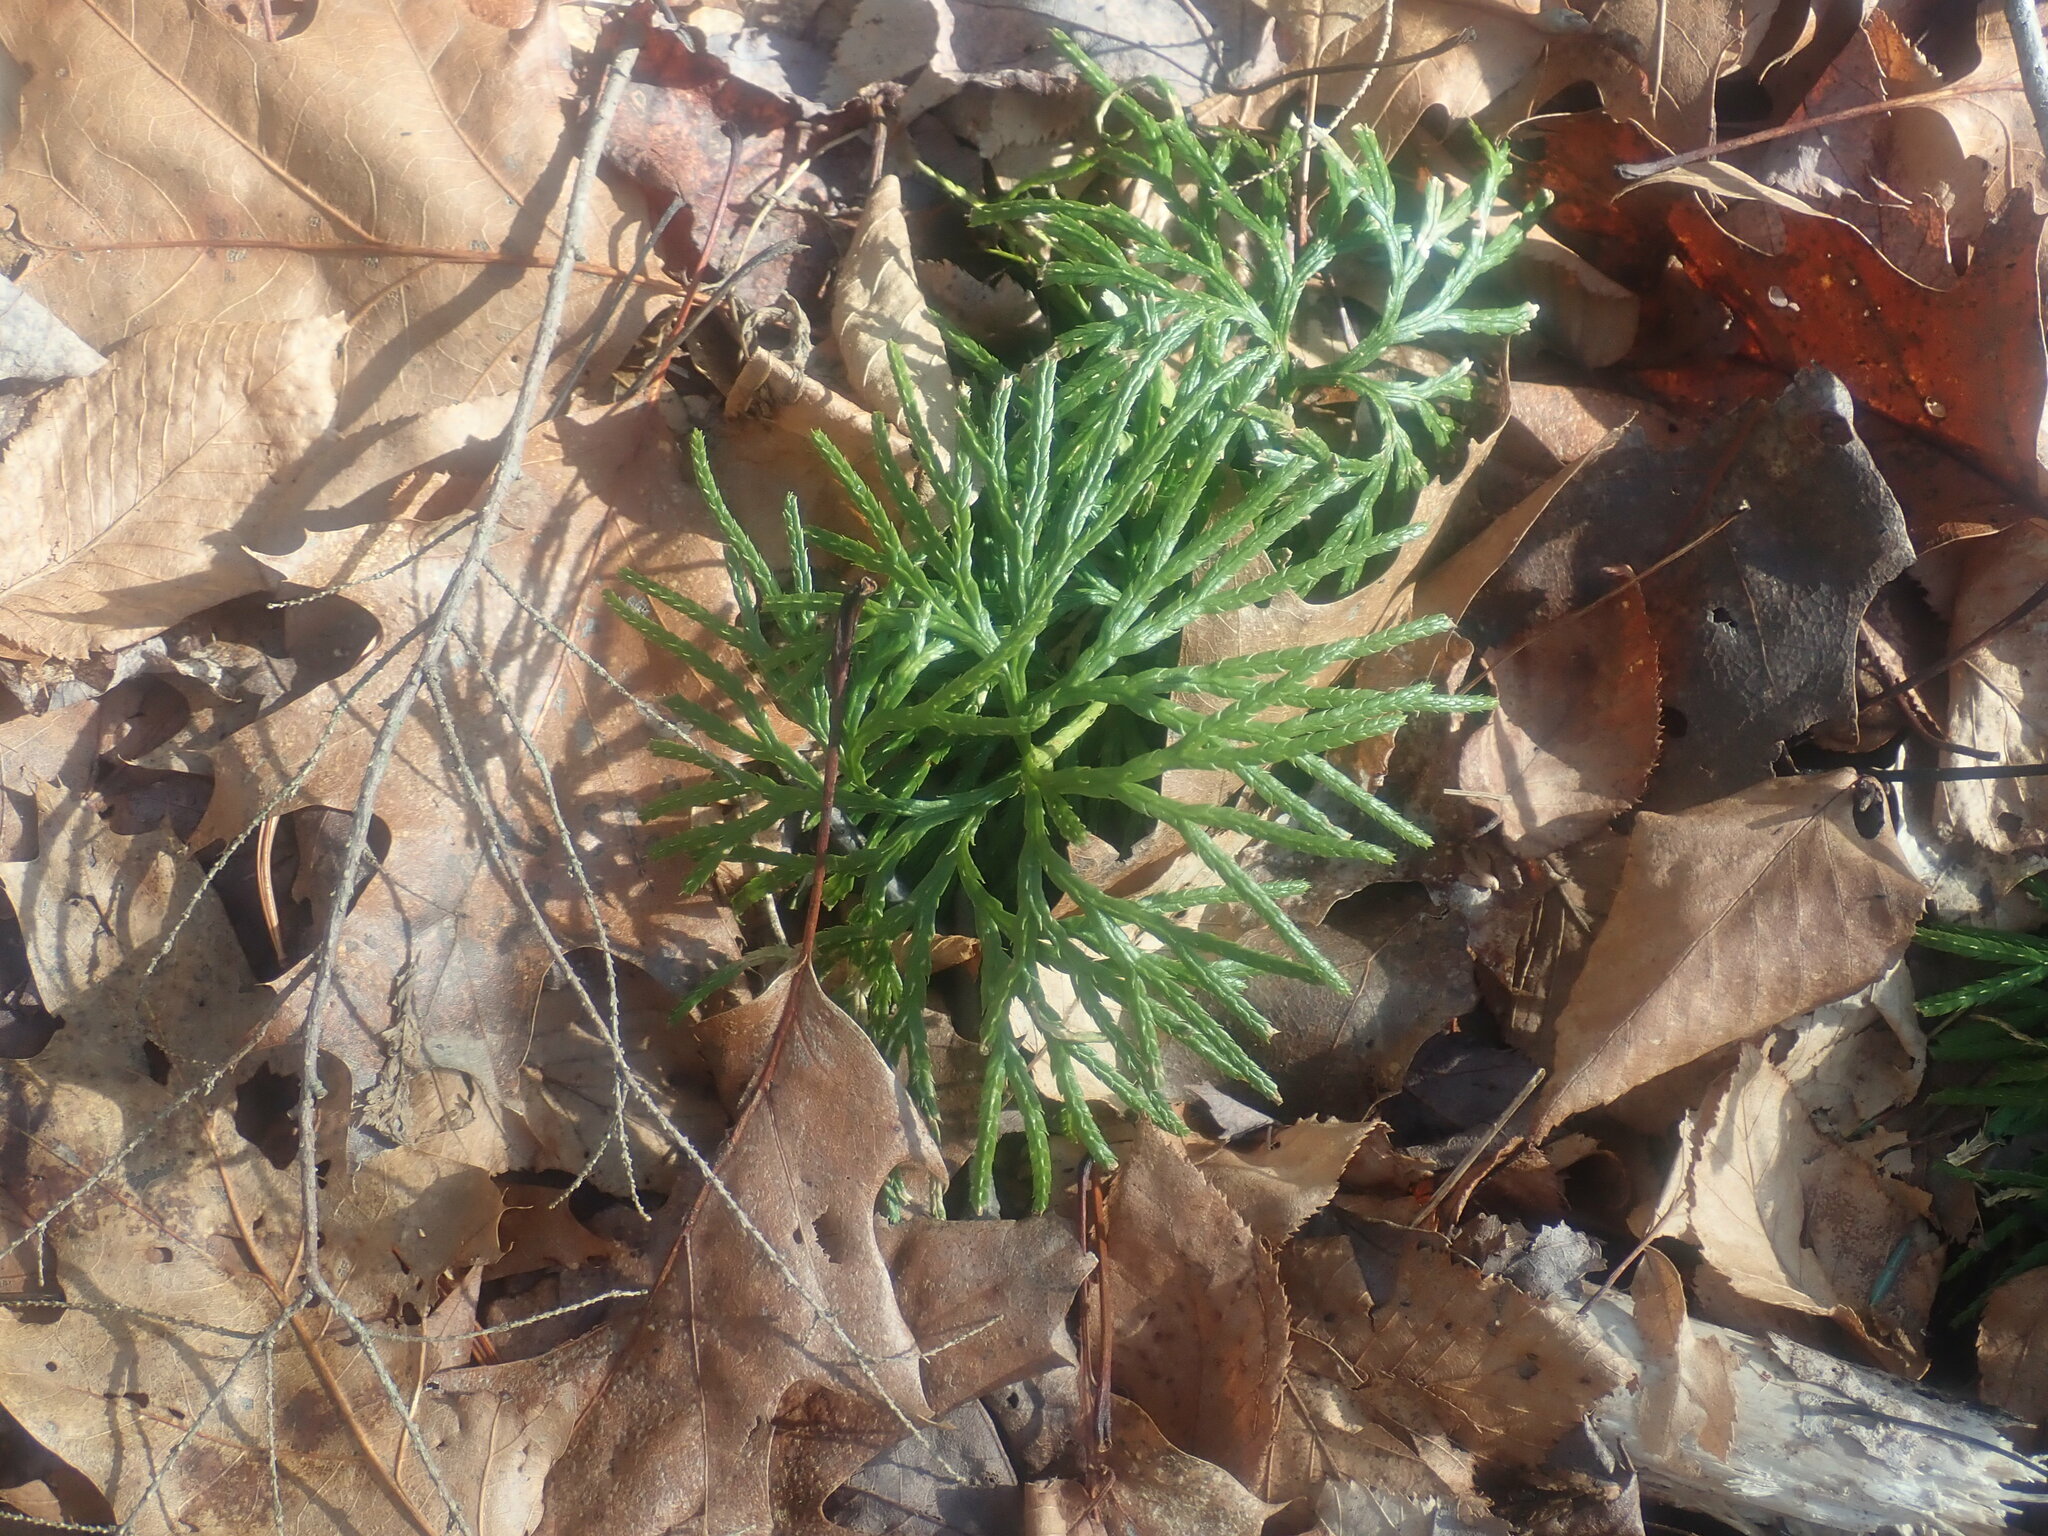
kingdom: Plantae
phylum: Tracheophyta
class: Lycopodiopsida
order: Lycopodiales
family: Lycopodiaceae
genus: Diphasiastrum
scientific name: Diphasiastrum digitatum
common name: Southern running-pine
